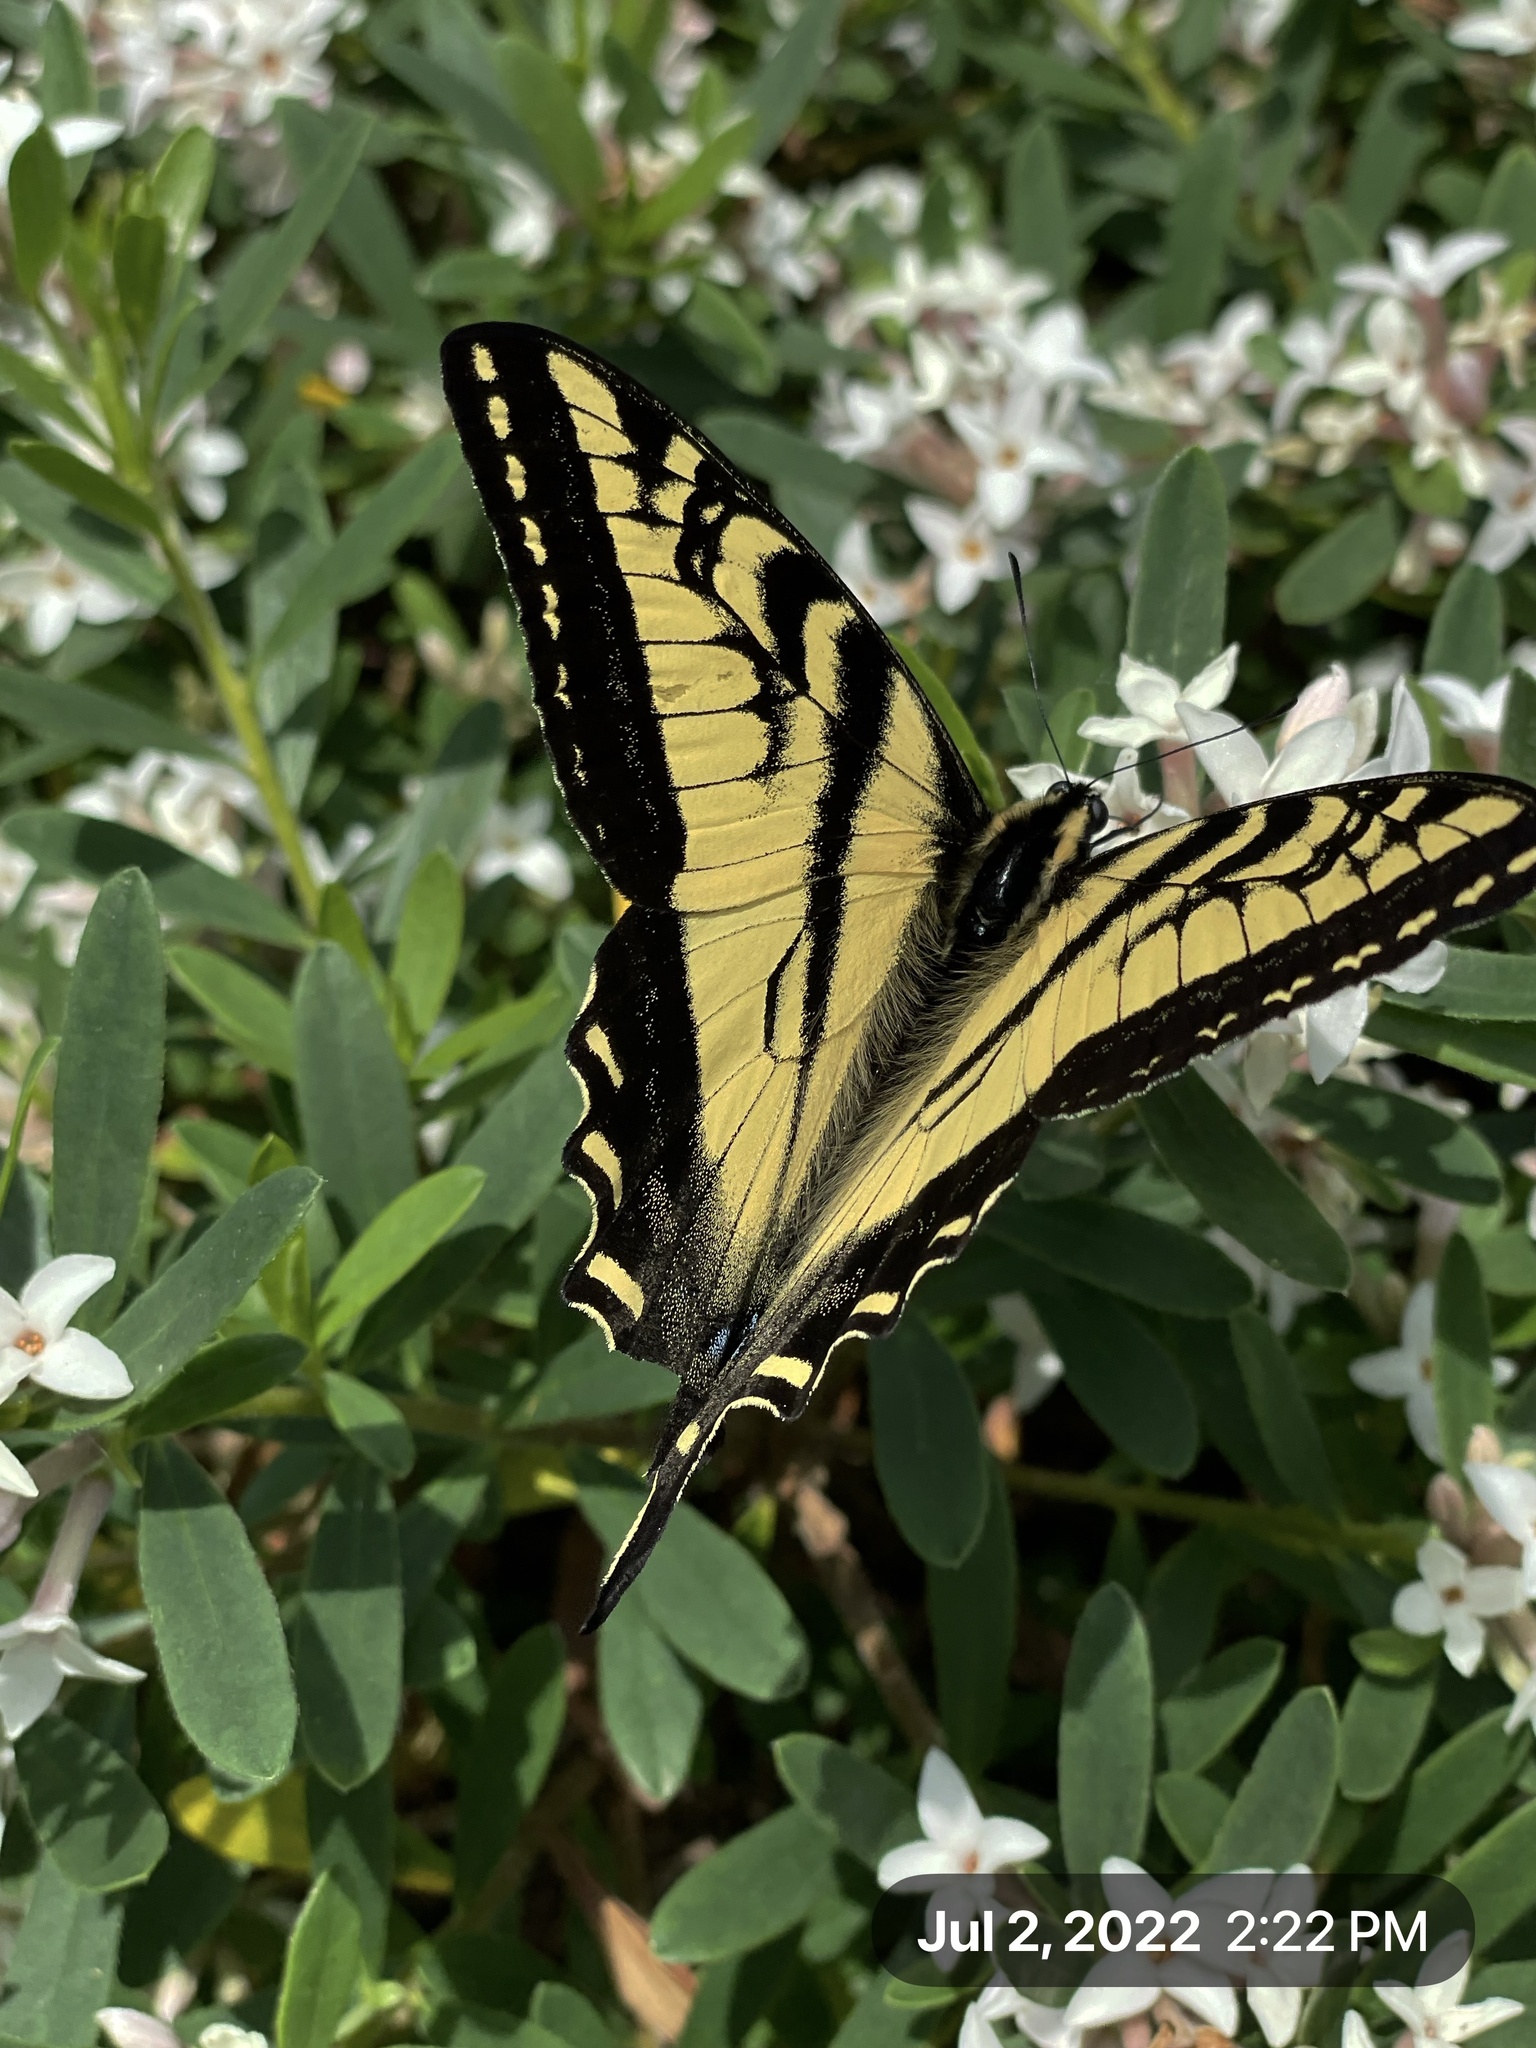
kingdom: Animalia
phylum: Arthropoda
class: Insecta
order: Lepidoptera
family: Papilionidae
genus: Papilio
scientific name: Papilio rutulus
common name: Western tiger swallowtail
